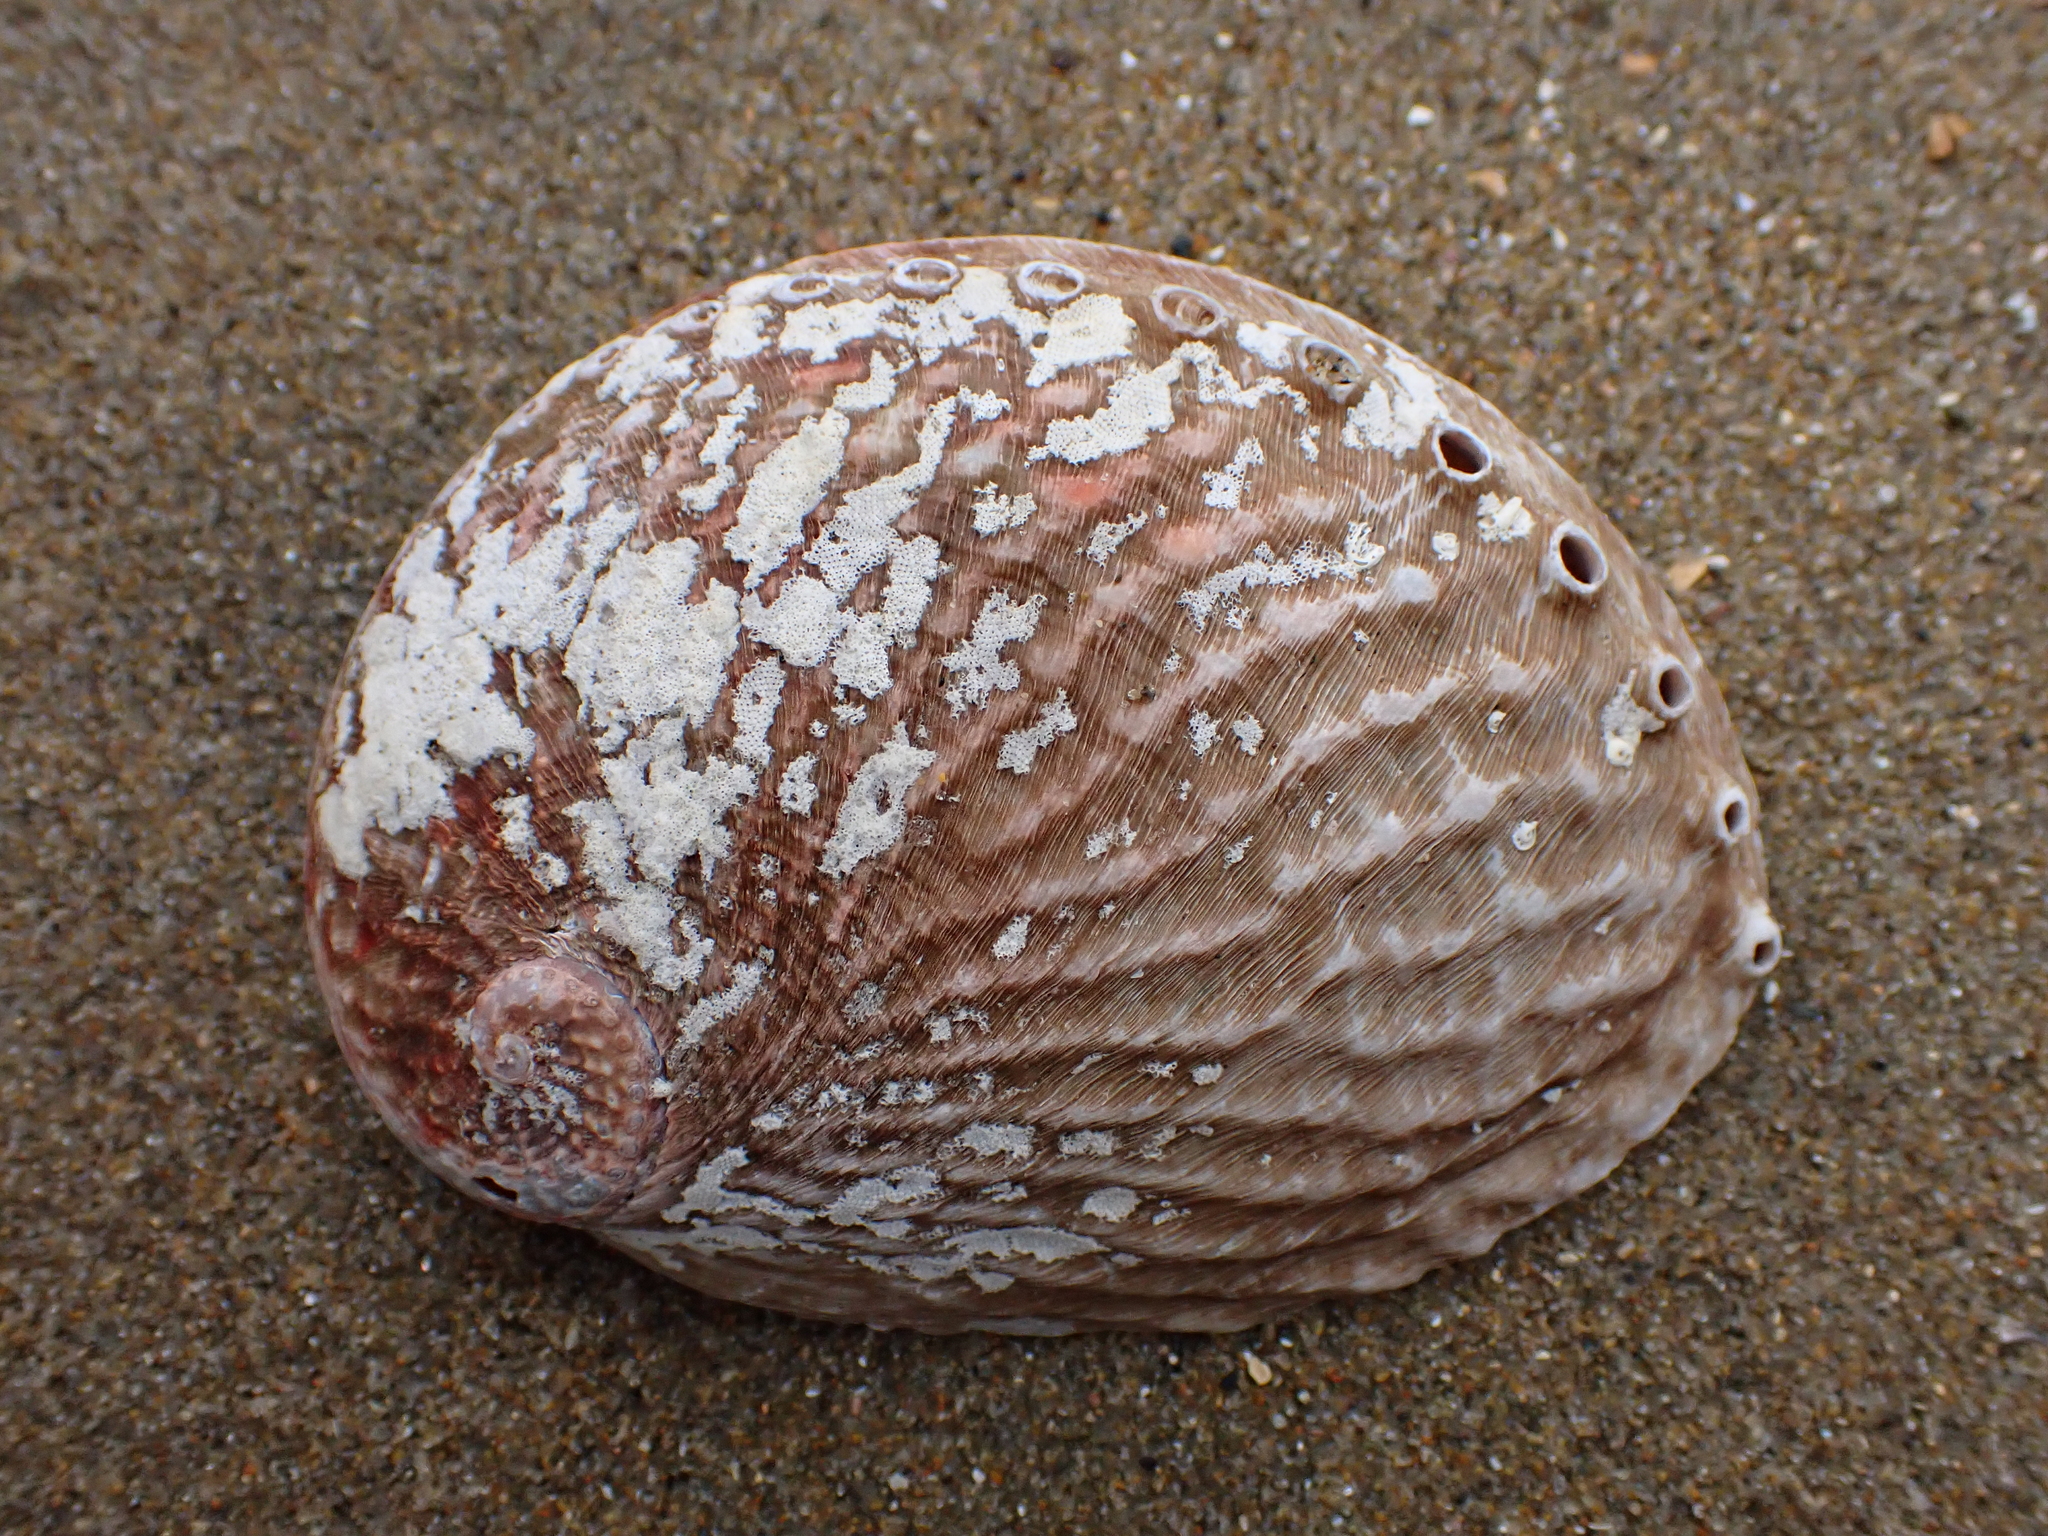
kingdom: Animalia
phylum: Mollusca
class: Gastropoda
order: Lepetellida
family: Haliotidae
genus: Haliotis
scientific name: Haliotis australis
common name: Silver abalone
